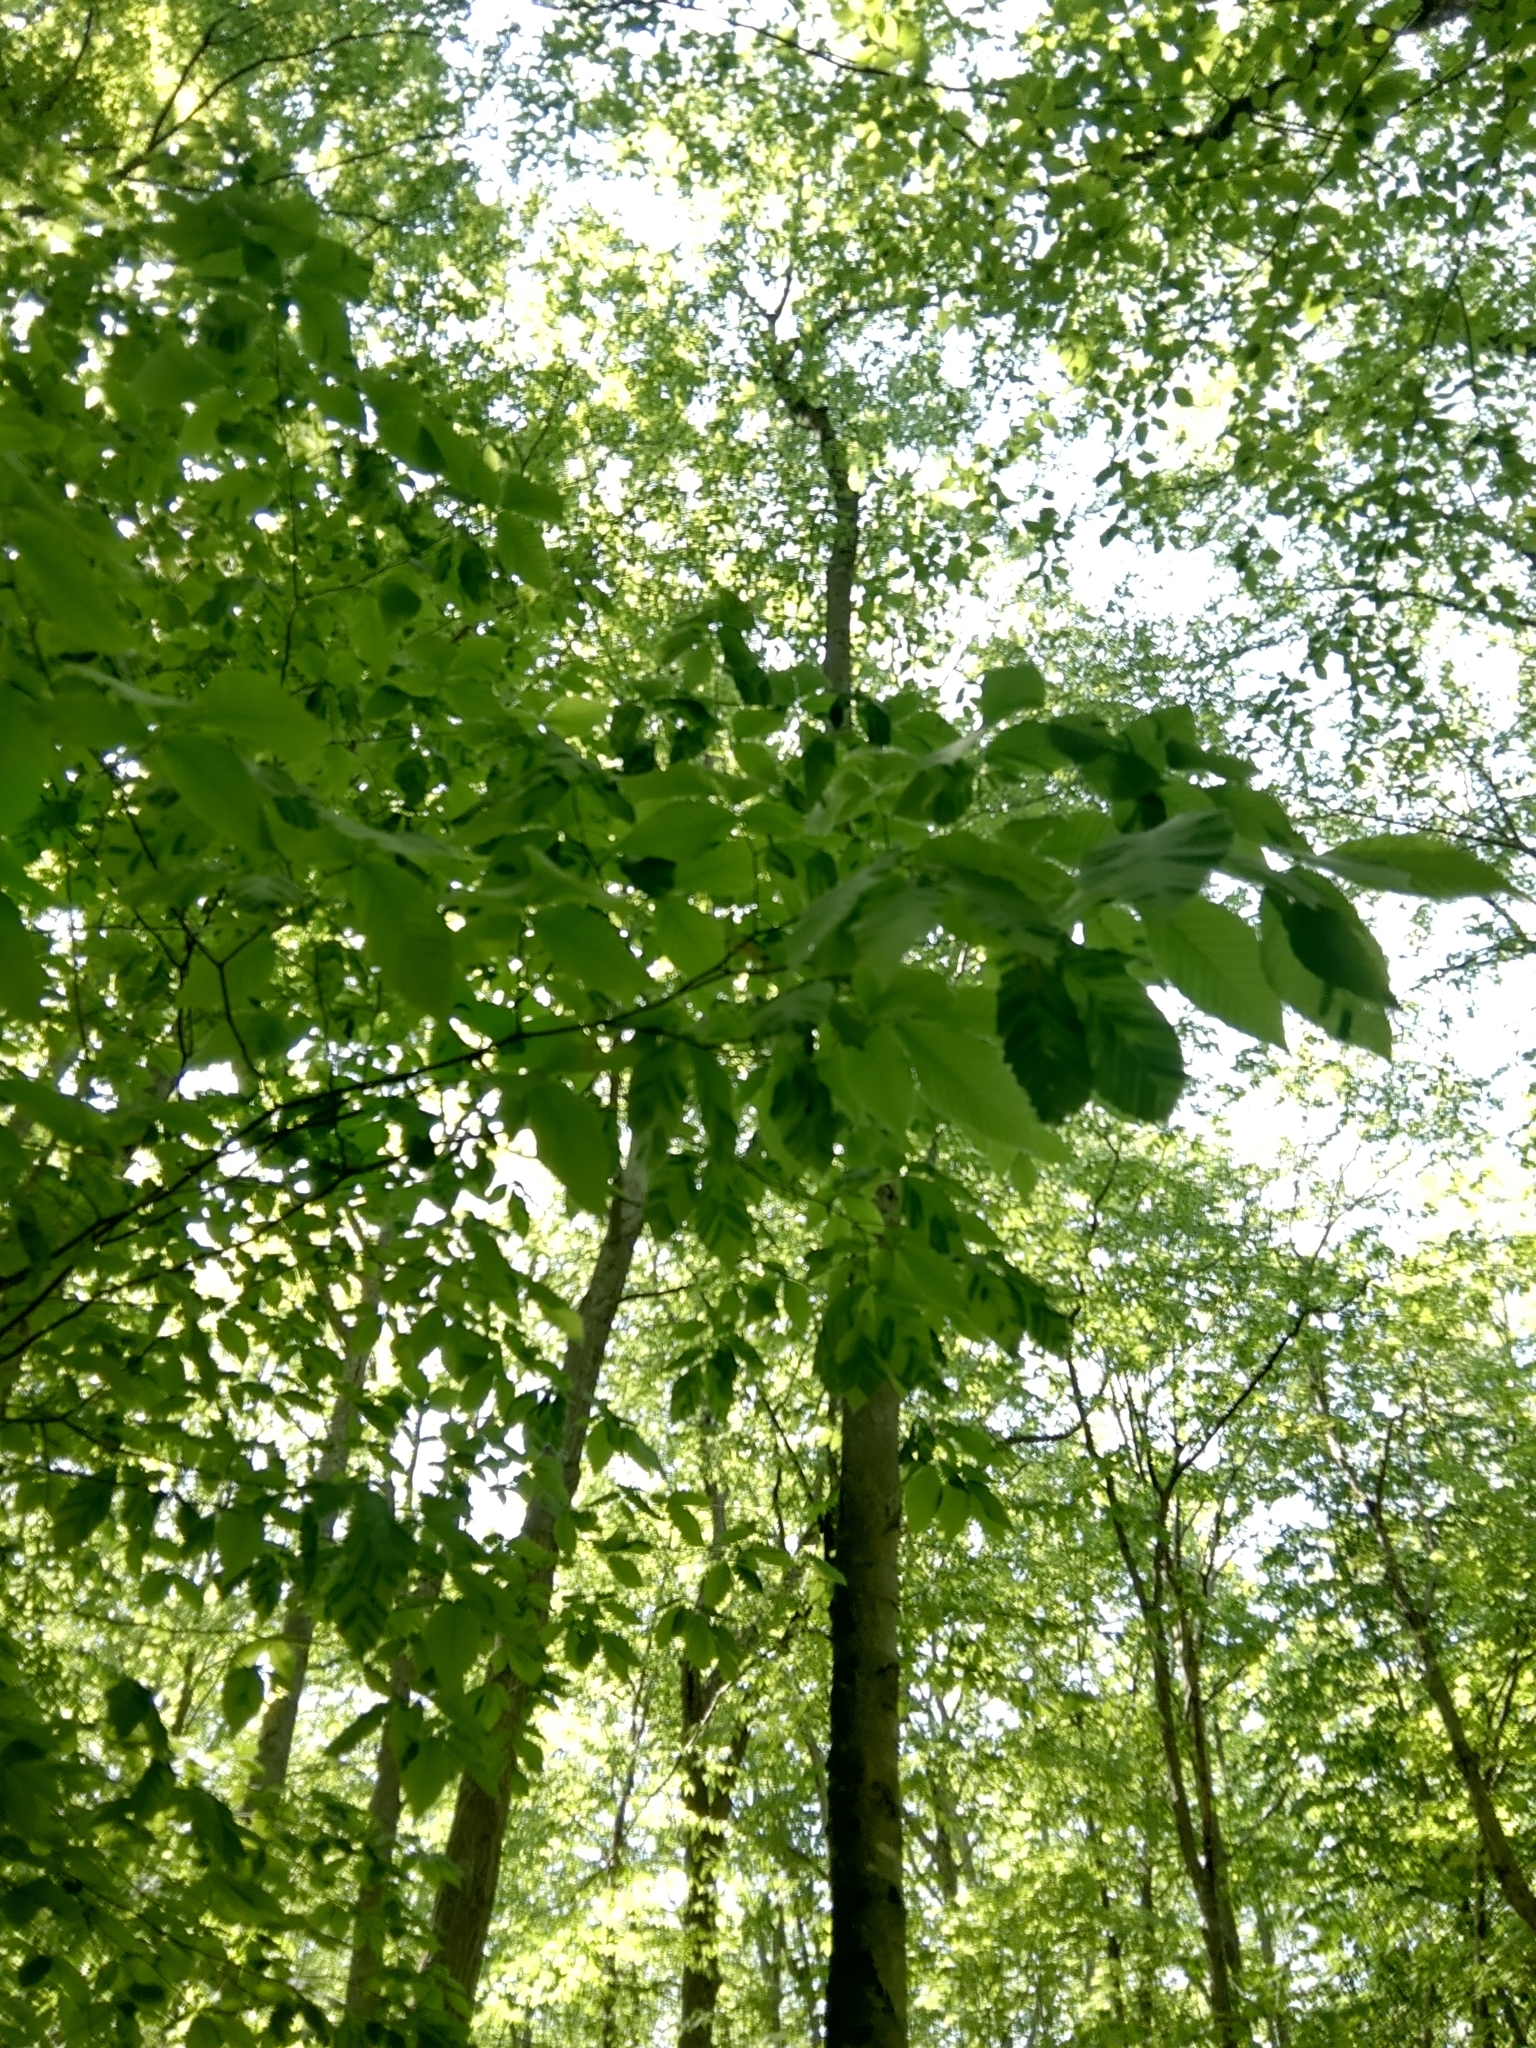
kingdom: Animalia
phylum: Nematoda
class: Chromadorea
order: Rhabditida
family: Anguinidae
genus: Litylenchus
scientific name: Litylenchus crenatae
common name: Beech leaf disease
